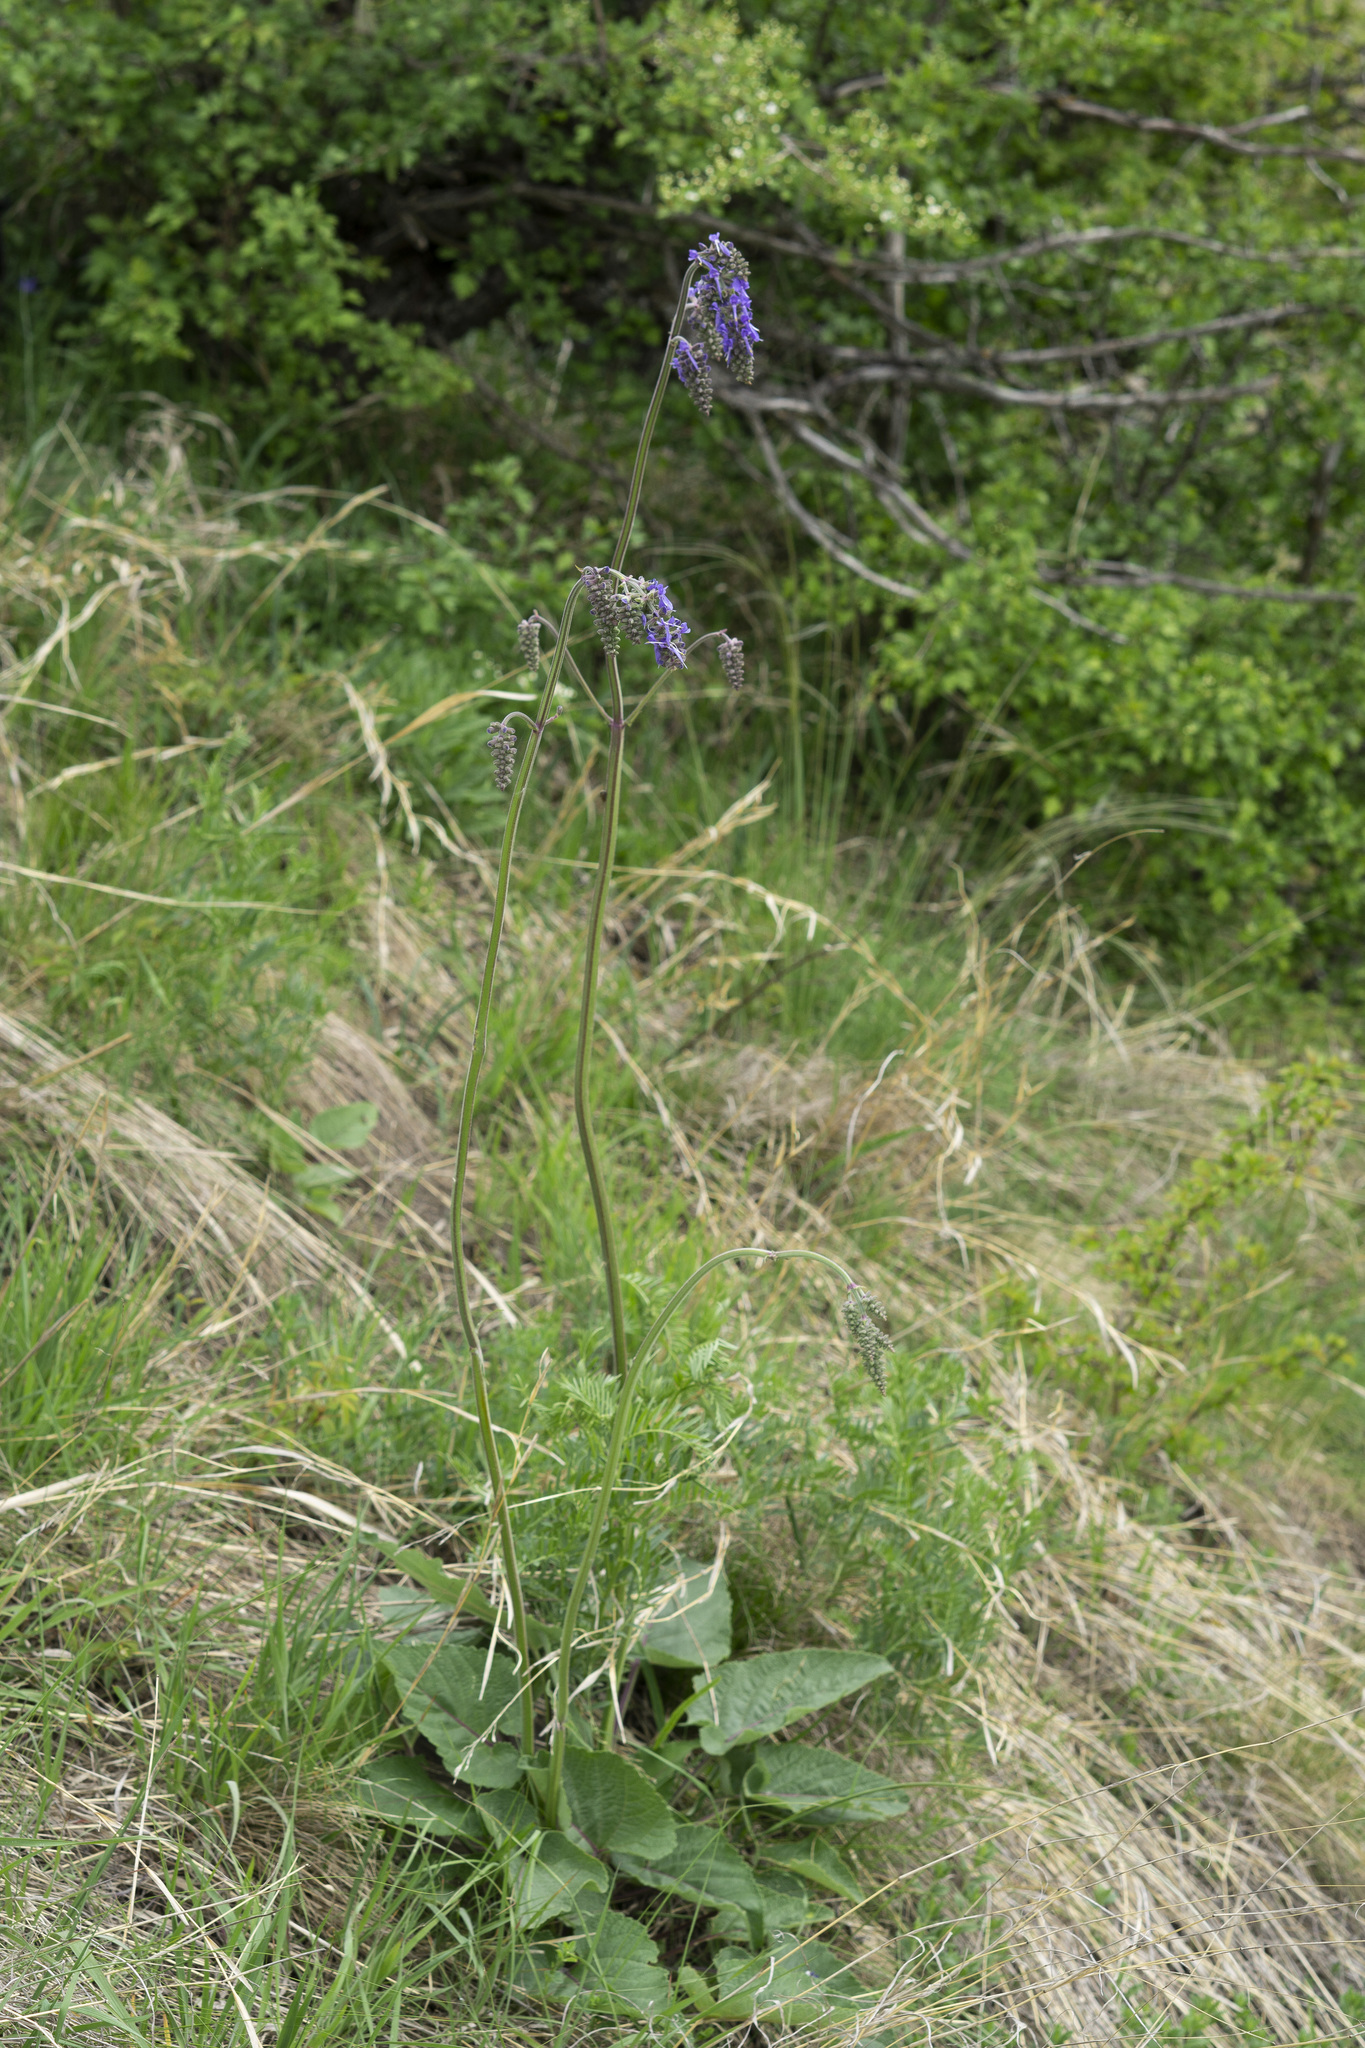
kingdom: Plantae
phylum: Tracheophyta
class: Magnoliopsida
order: Lamiales
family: Lamiaceae
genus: Salvia
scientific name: Salvia nutans
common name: Nodding sage
